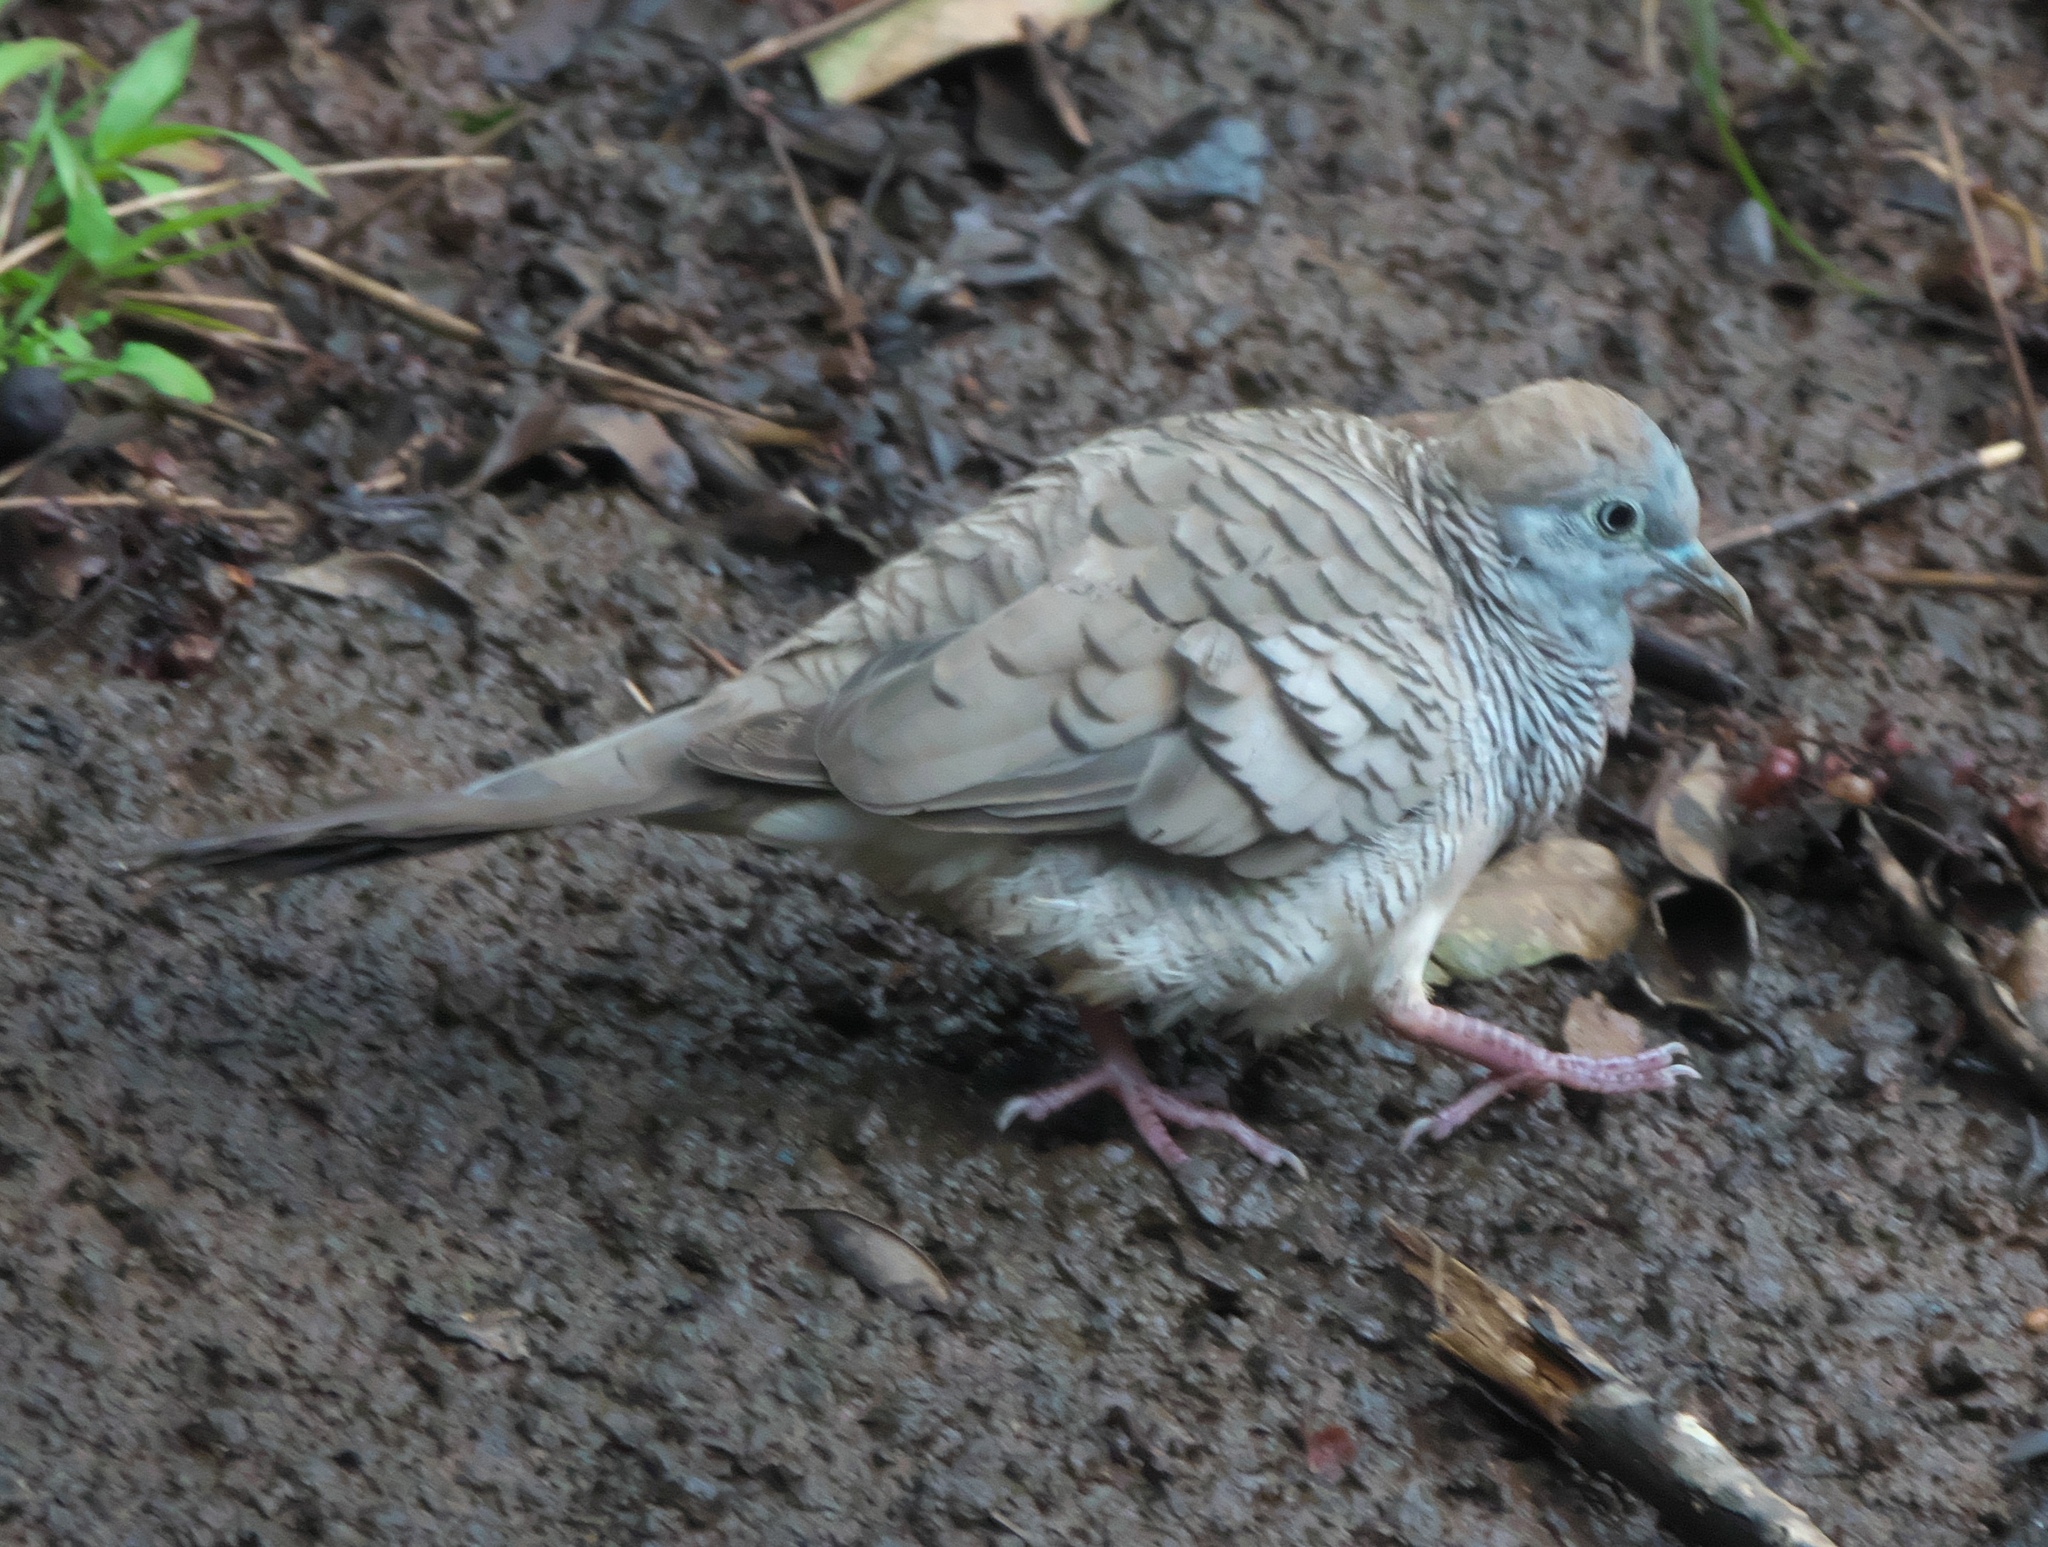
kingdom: Animalia
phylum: Chordata
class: Aves
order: Columbiformes
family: Columbidae
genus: Geopelia
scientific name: Geopelia striata
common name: Zebra dove
